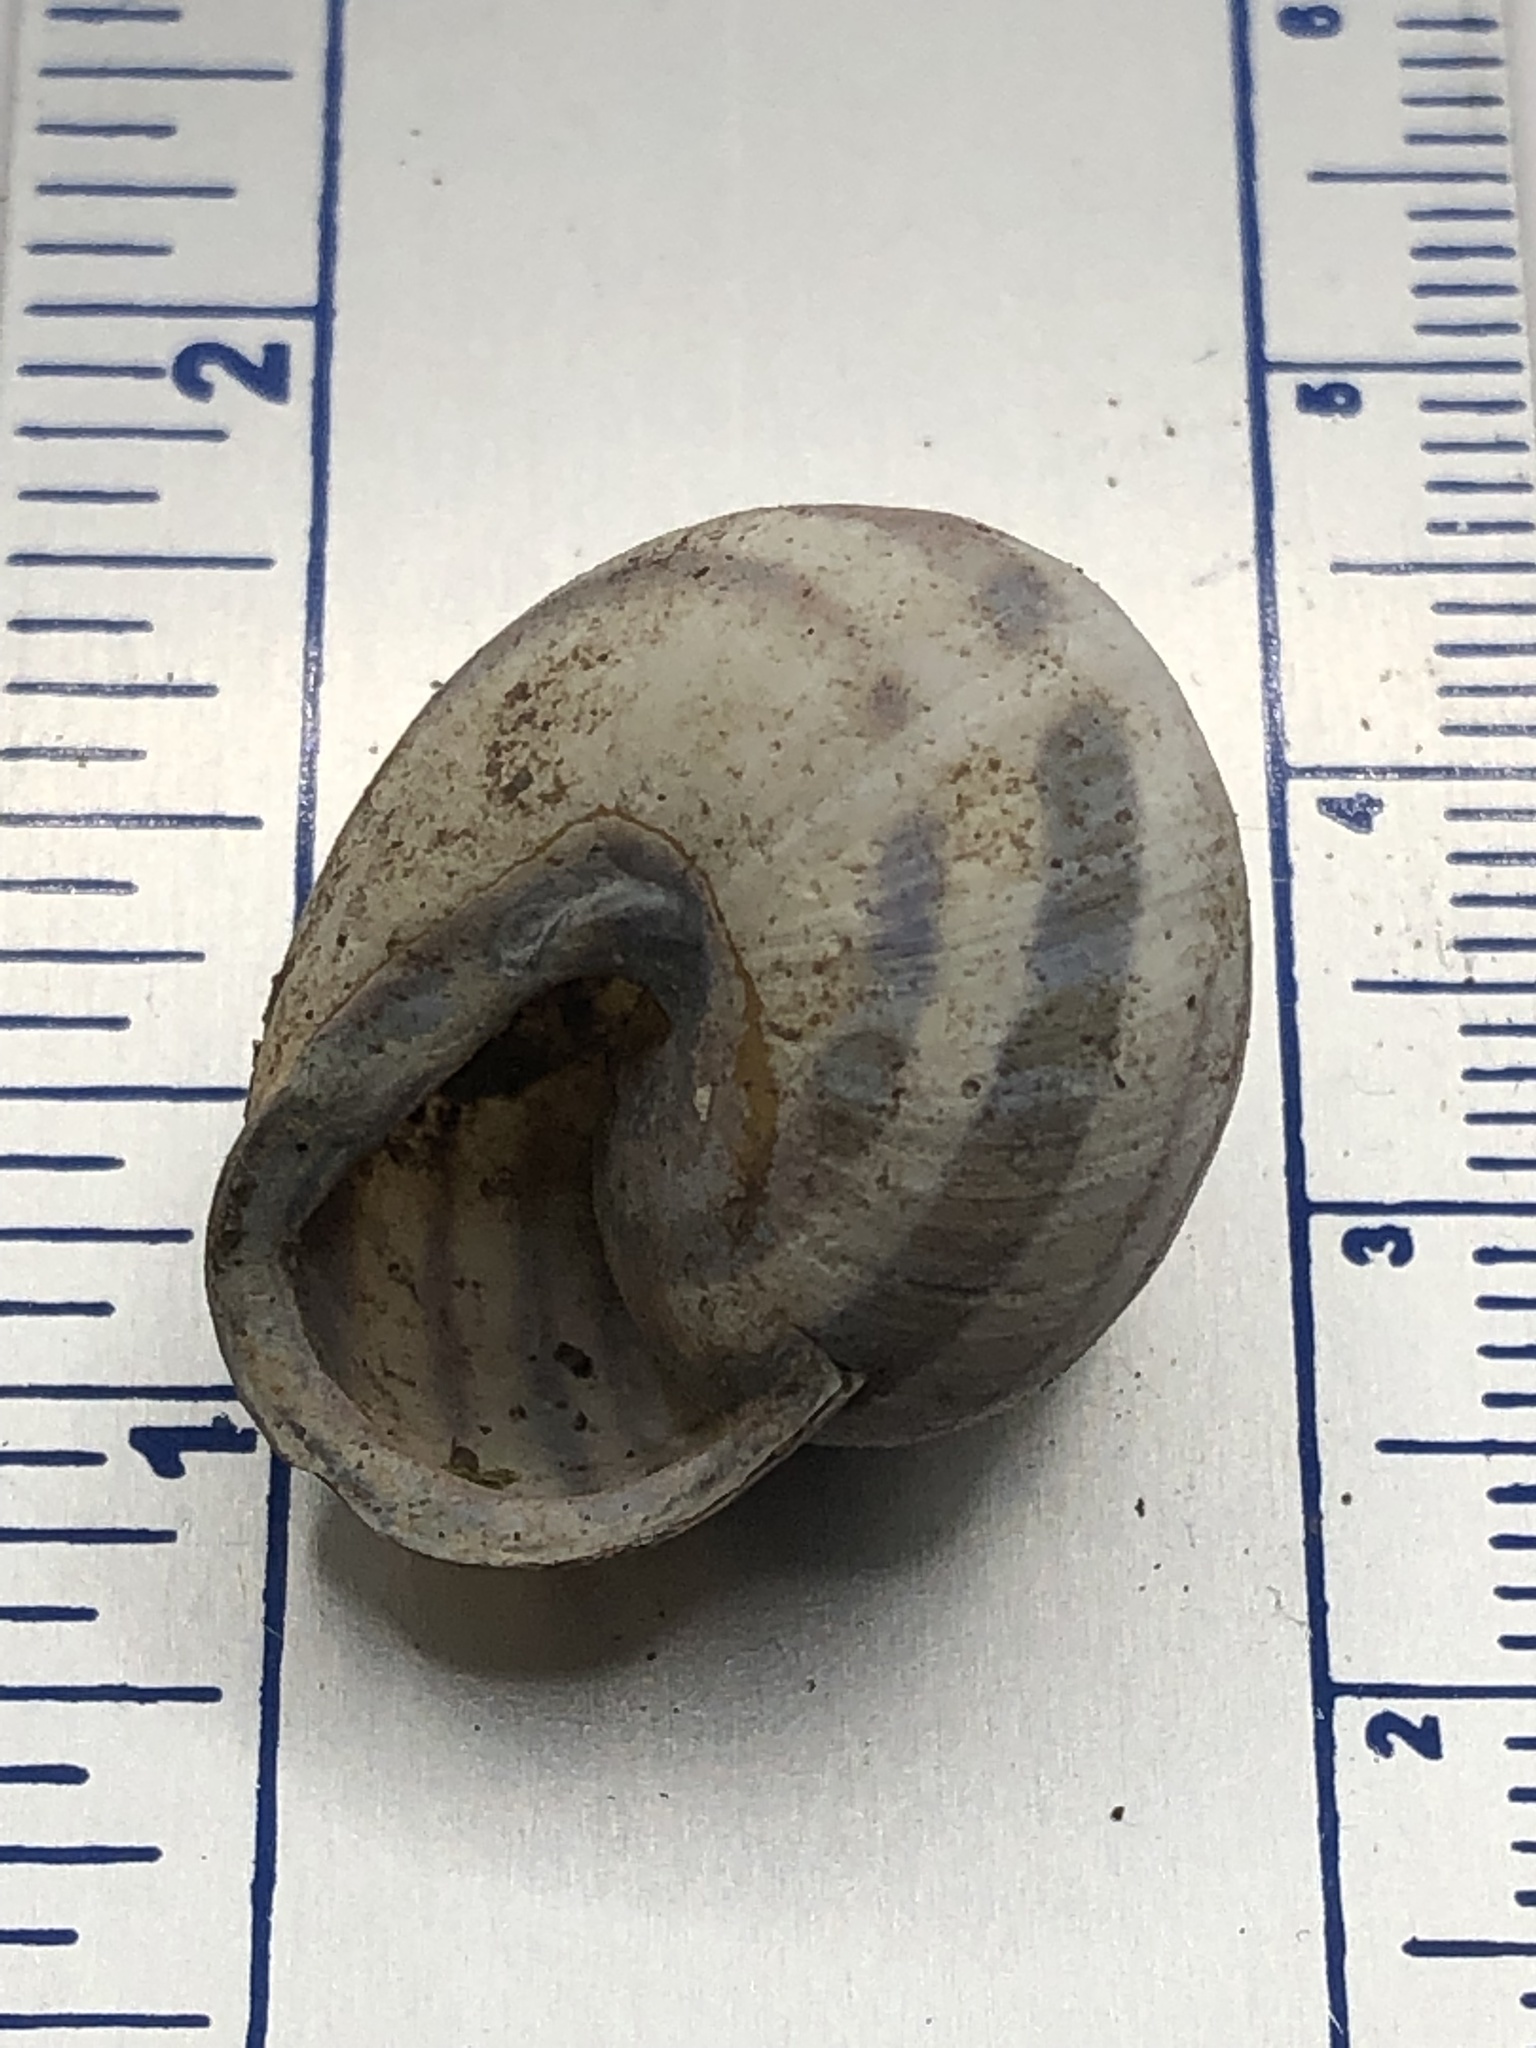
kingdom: Animalia
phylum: Mollusca
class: Gastropoda
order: Stylommatophora
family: Helicidae
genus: Cepaea
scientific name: Cepaea nemoralis
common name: Grovesnail
